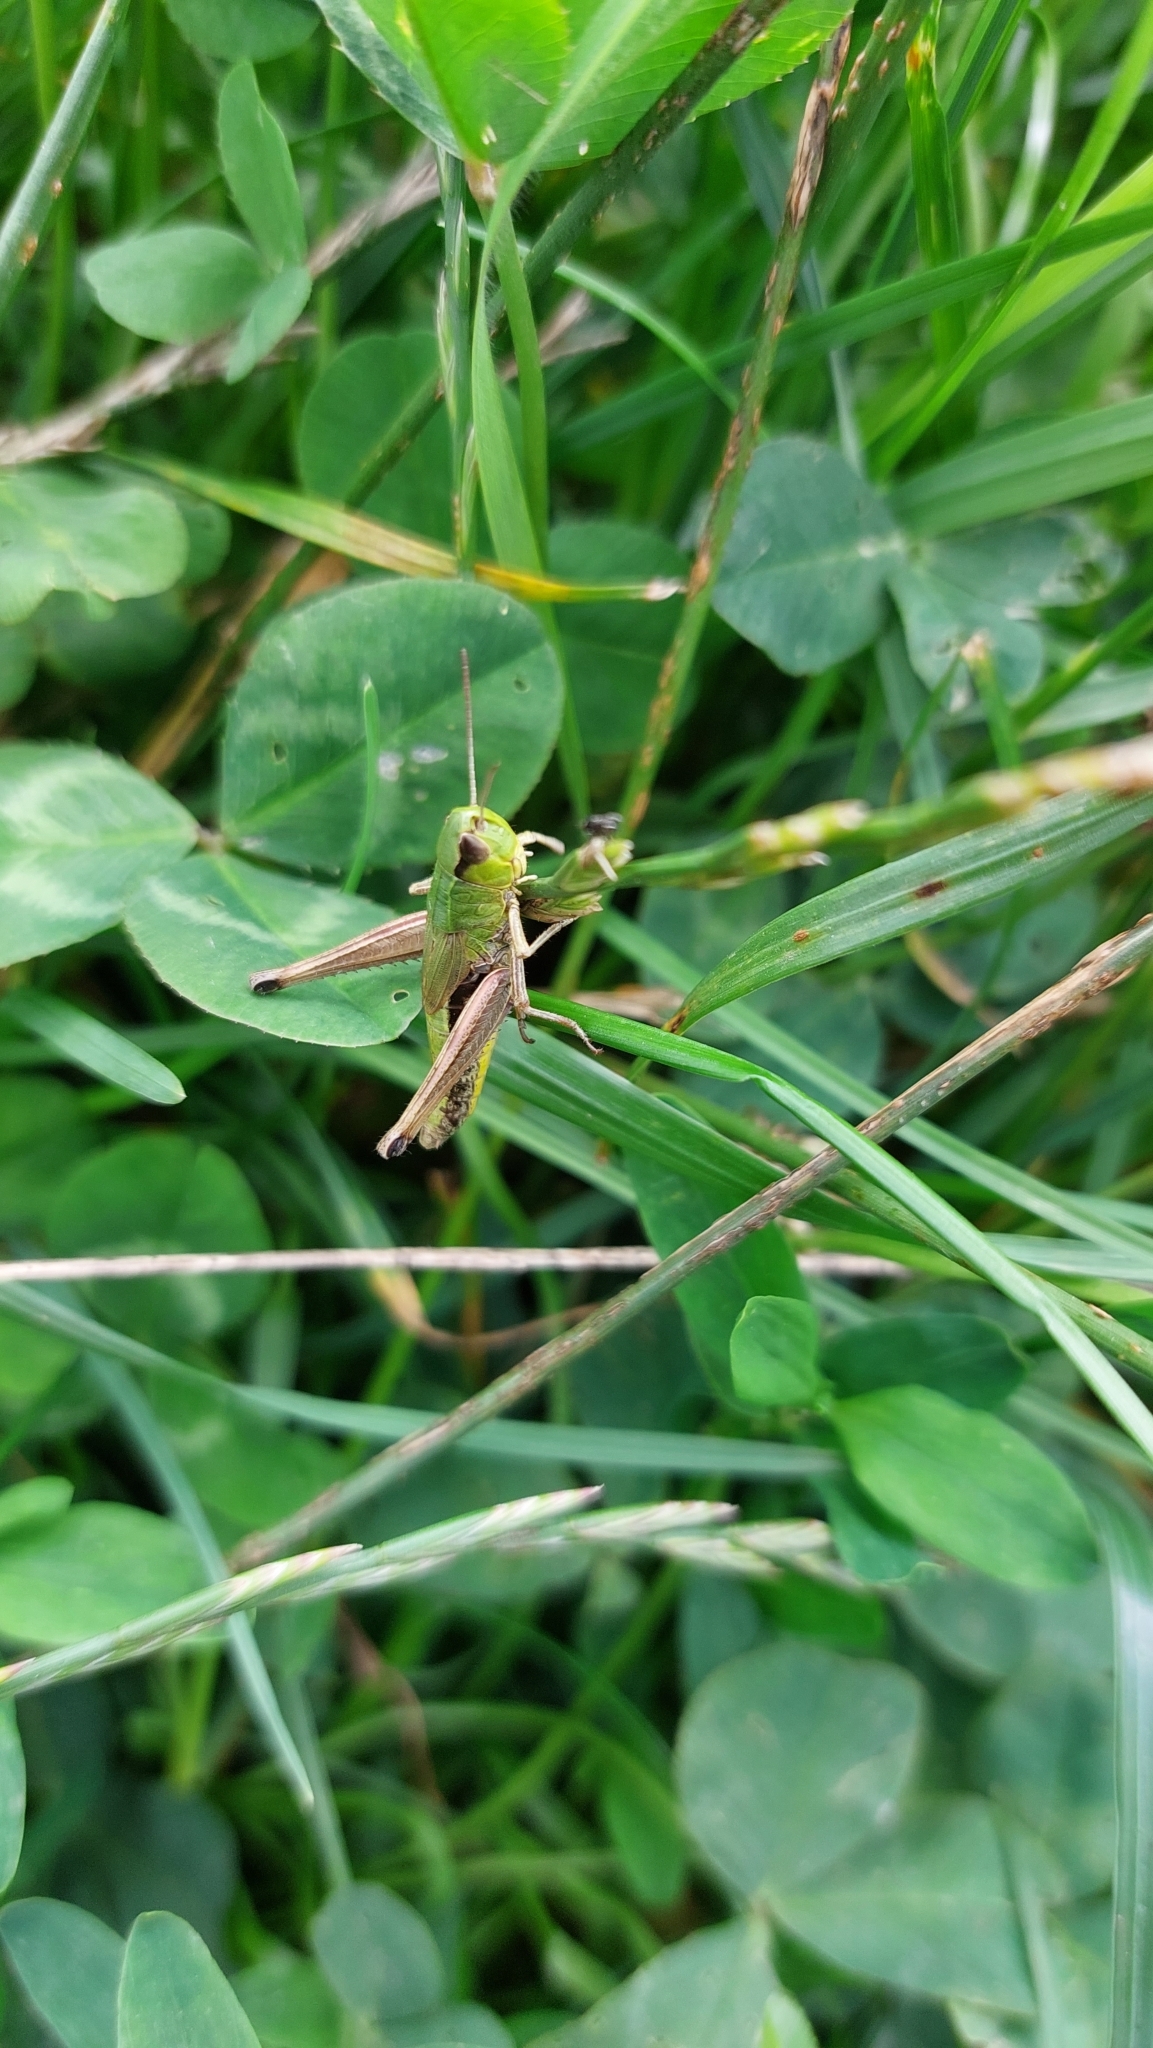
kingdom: Animalia
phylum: Arthropoda
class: Insecta
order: Orthoptera
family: Acrididae
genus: Pseudochorthippus
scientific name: Pseudochorthippus parallelus
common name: Meadow grasshopper
